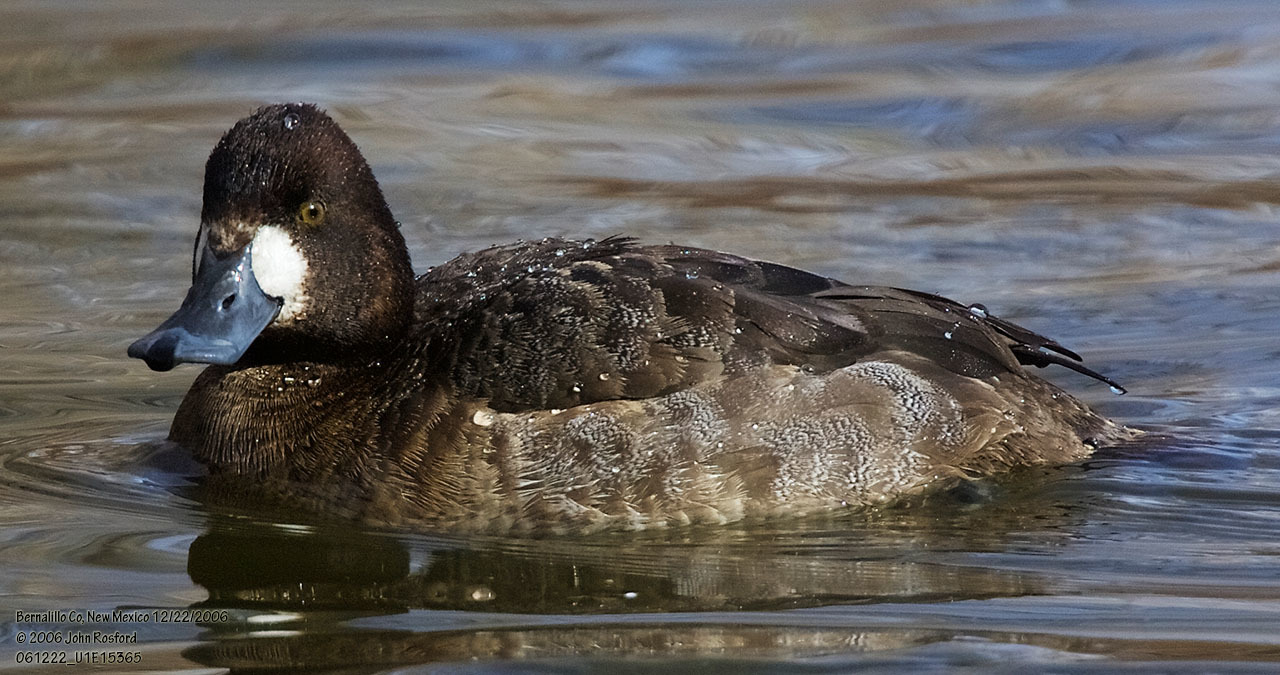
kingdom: Animalia
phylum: Chordata
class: Aves
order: Anseriformes
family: Anatidae
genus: Aythya
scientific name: Aythya affinis
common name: Lesser scaup
